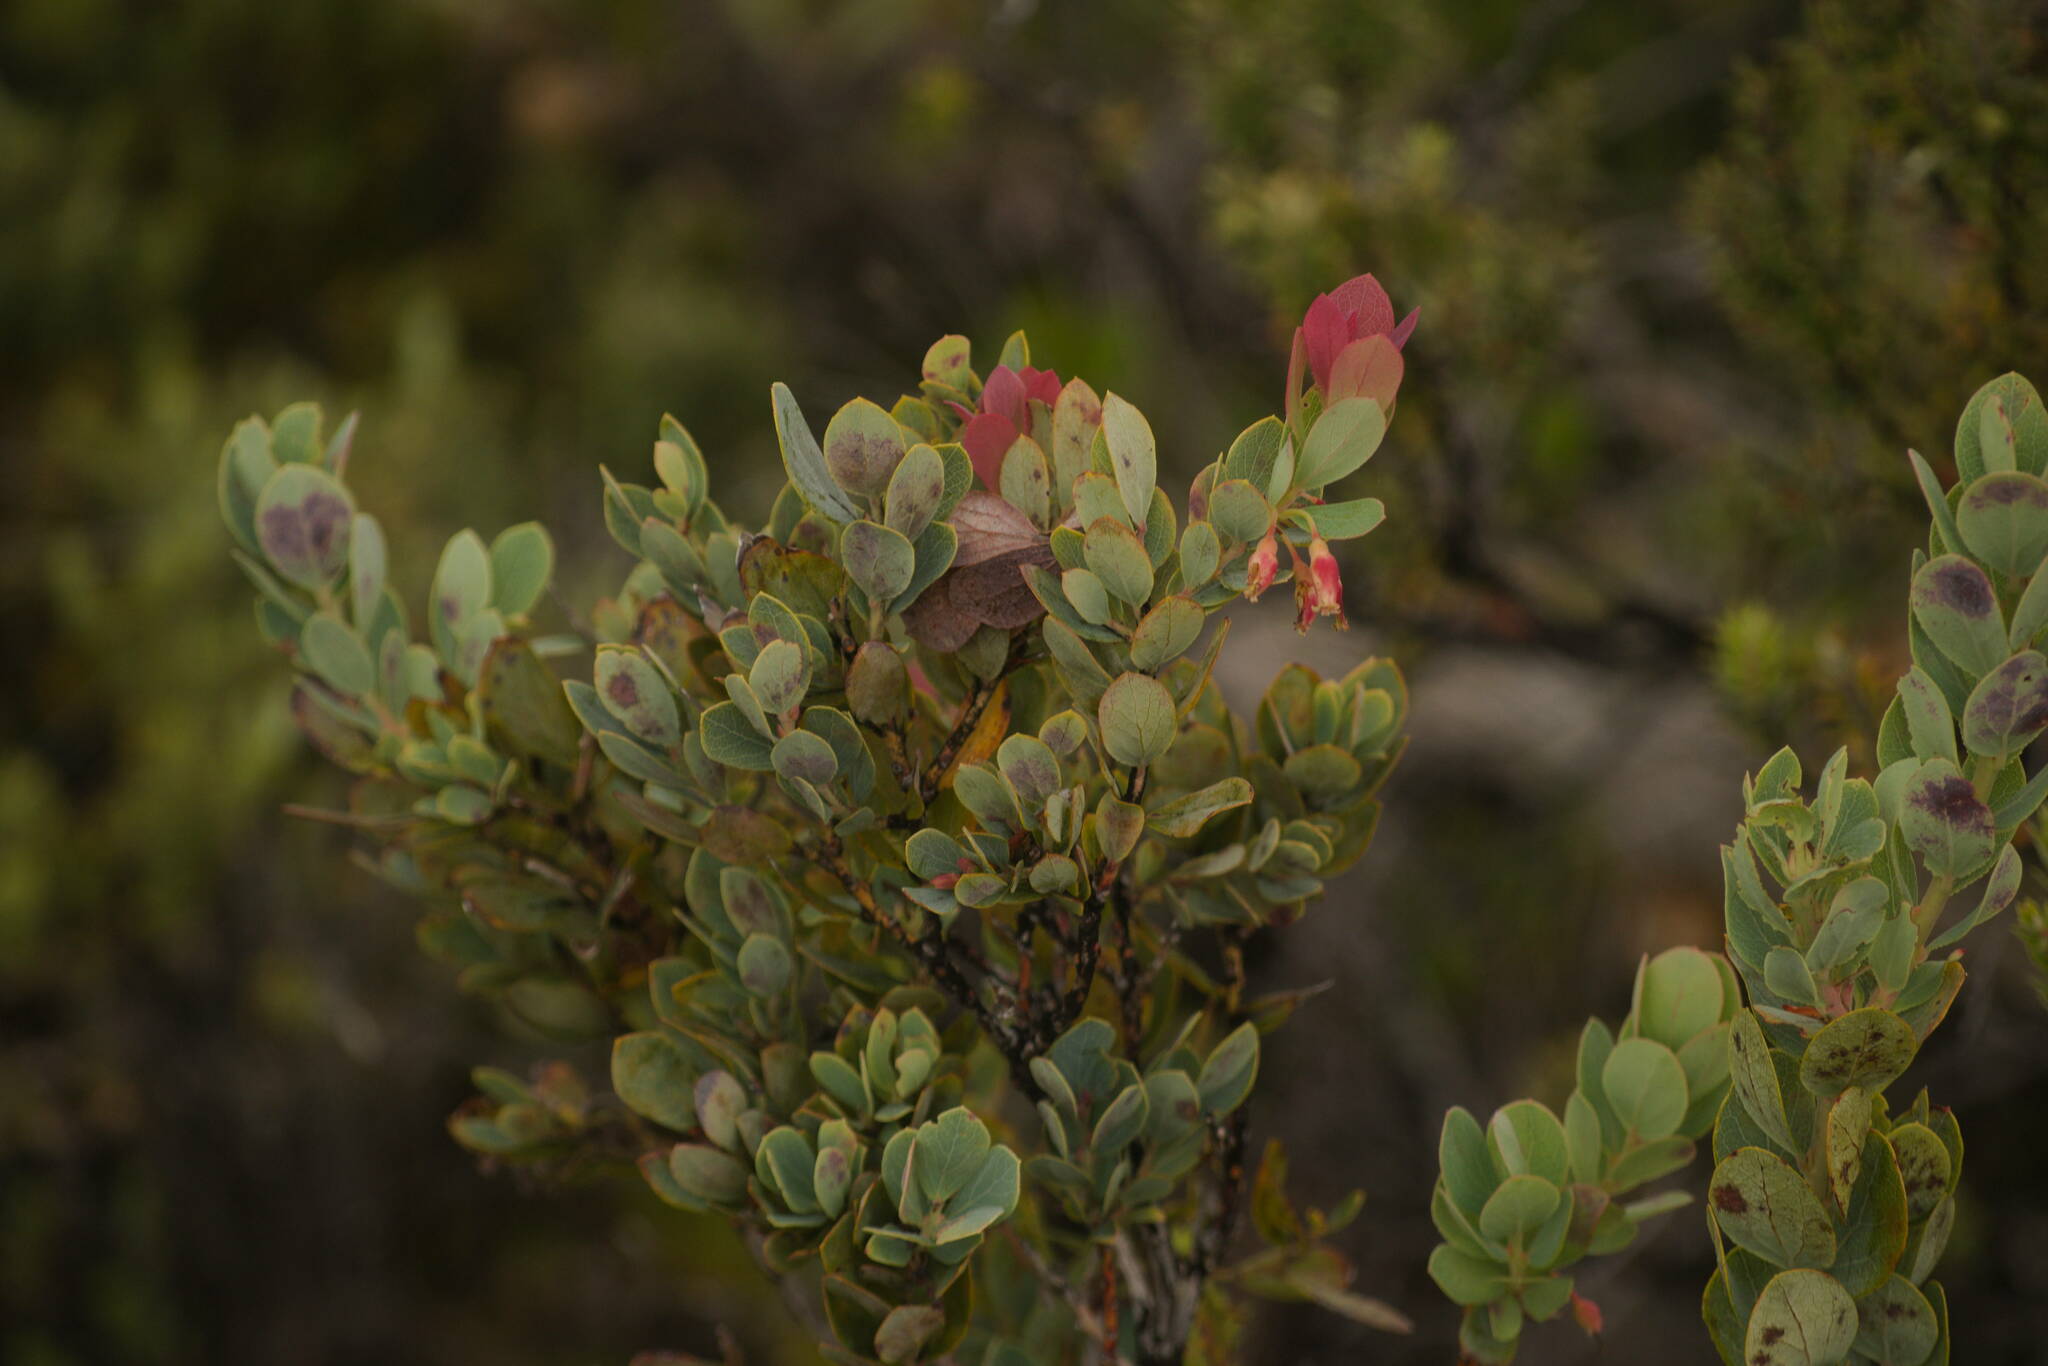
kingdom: Plantae
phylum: Tracheophyta
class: Magnoliopsida
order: Ericales
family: Ericaceae
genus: Vaccinium
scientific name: Vaccinium reticulatum
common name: Ohelo
